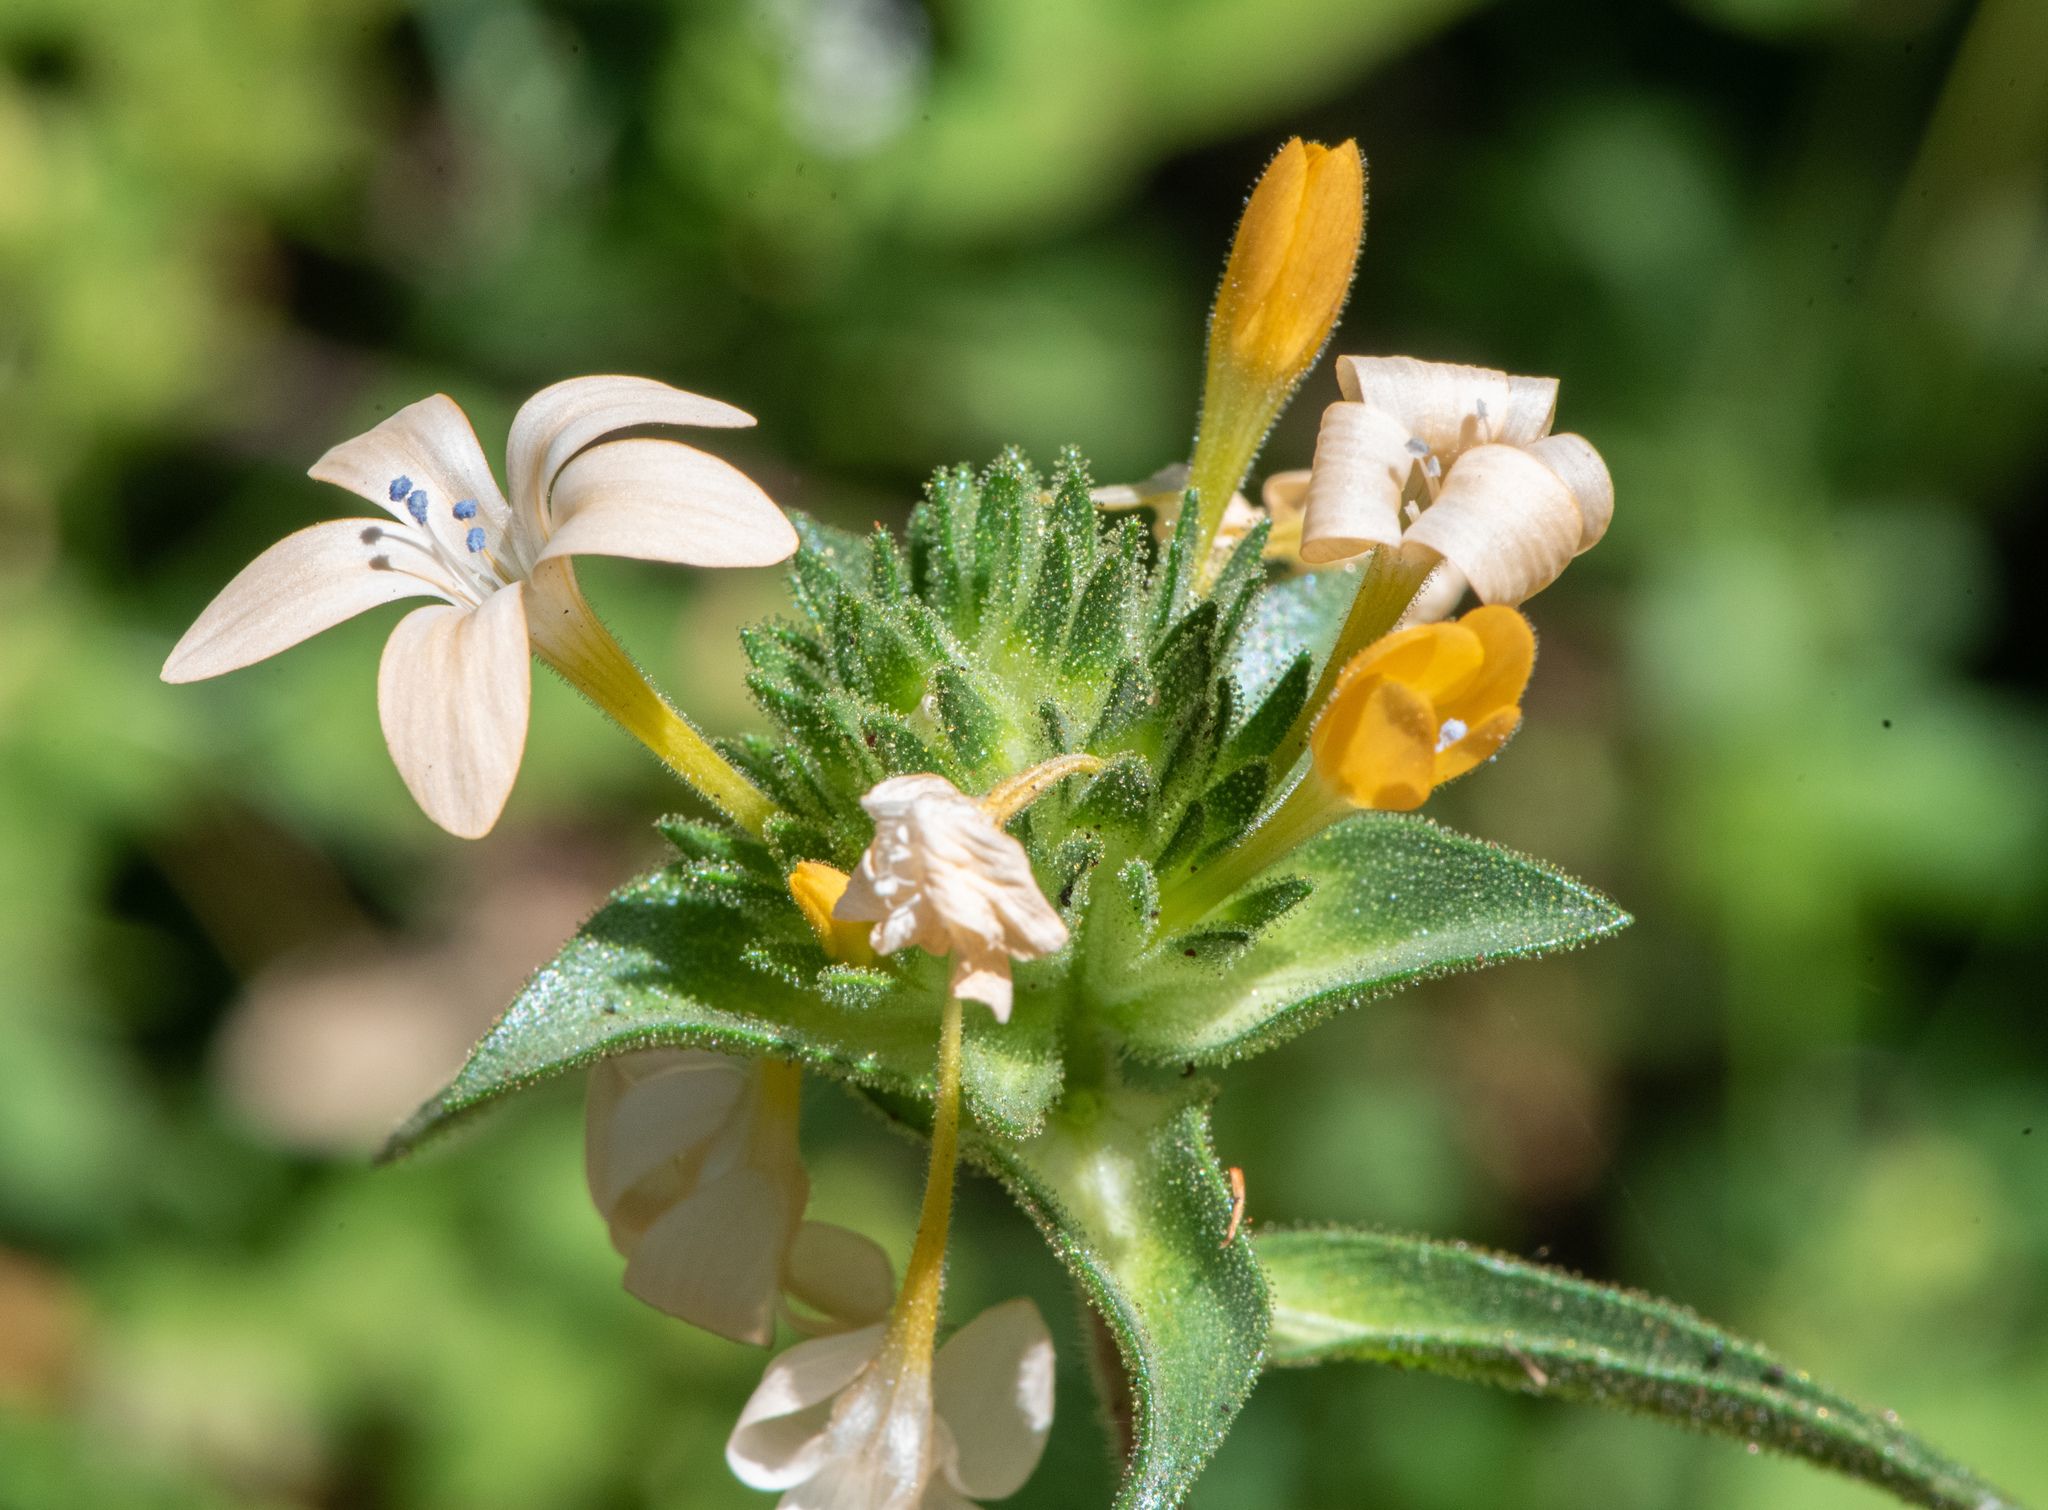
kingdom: Plantae
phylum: Tracheophyta
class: Magnoliopsida
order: Ericales
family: Polemoniaceae
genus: Collomia
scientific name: Collomia grandiflora
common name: California strawflower
